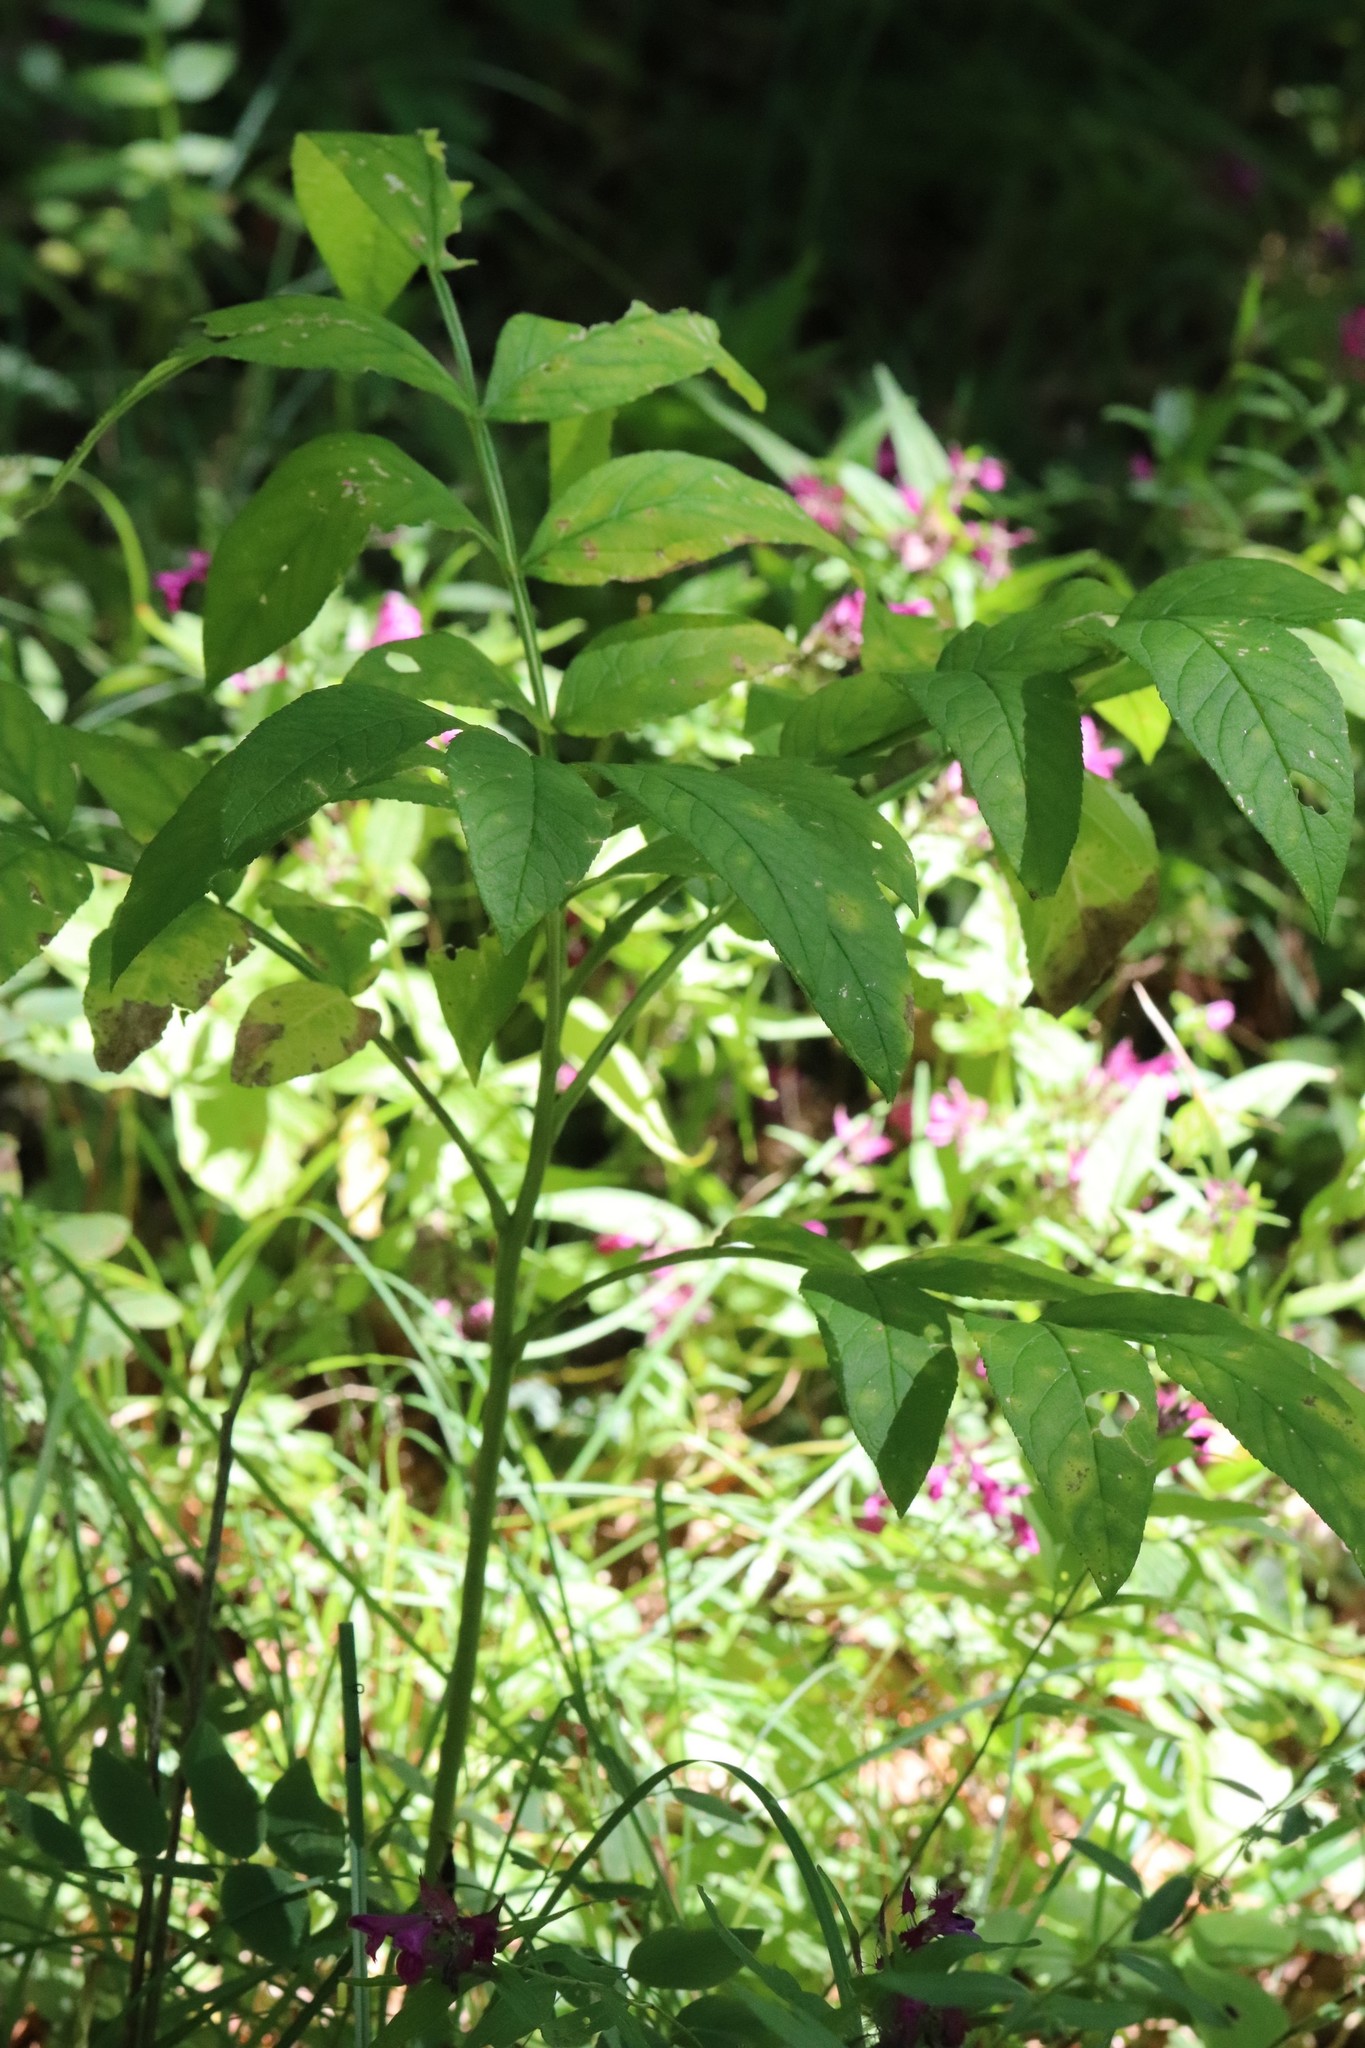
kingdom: Plantae
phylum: Tracheophyta
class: Magnoliopsida
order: Sapindales
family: Rutaceae
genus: Dictamnus
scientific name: Dictamnus dasycarpus
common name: Dense-fruit dittany
